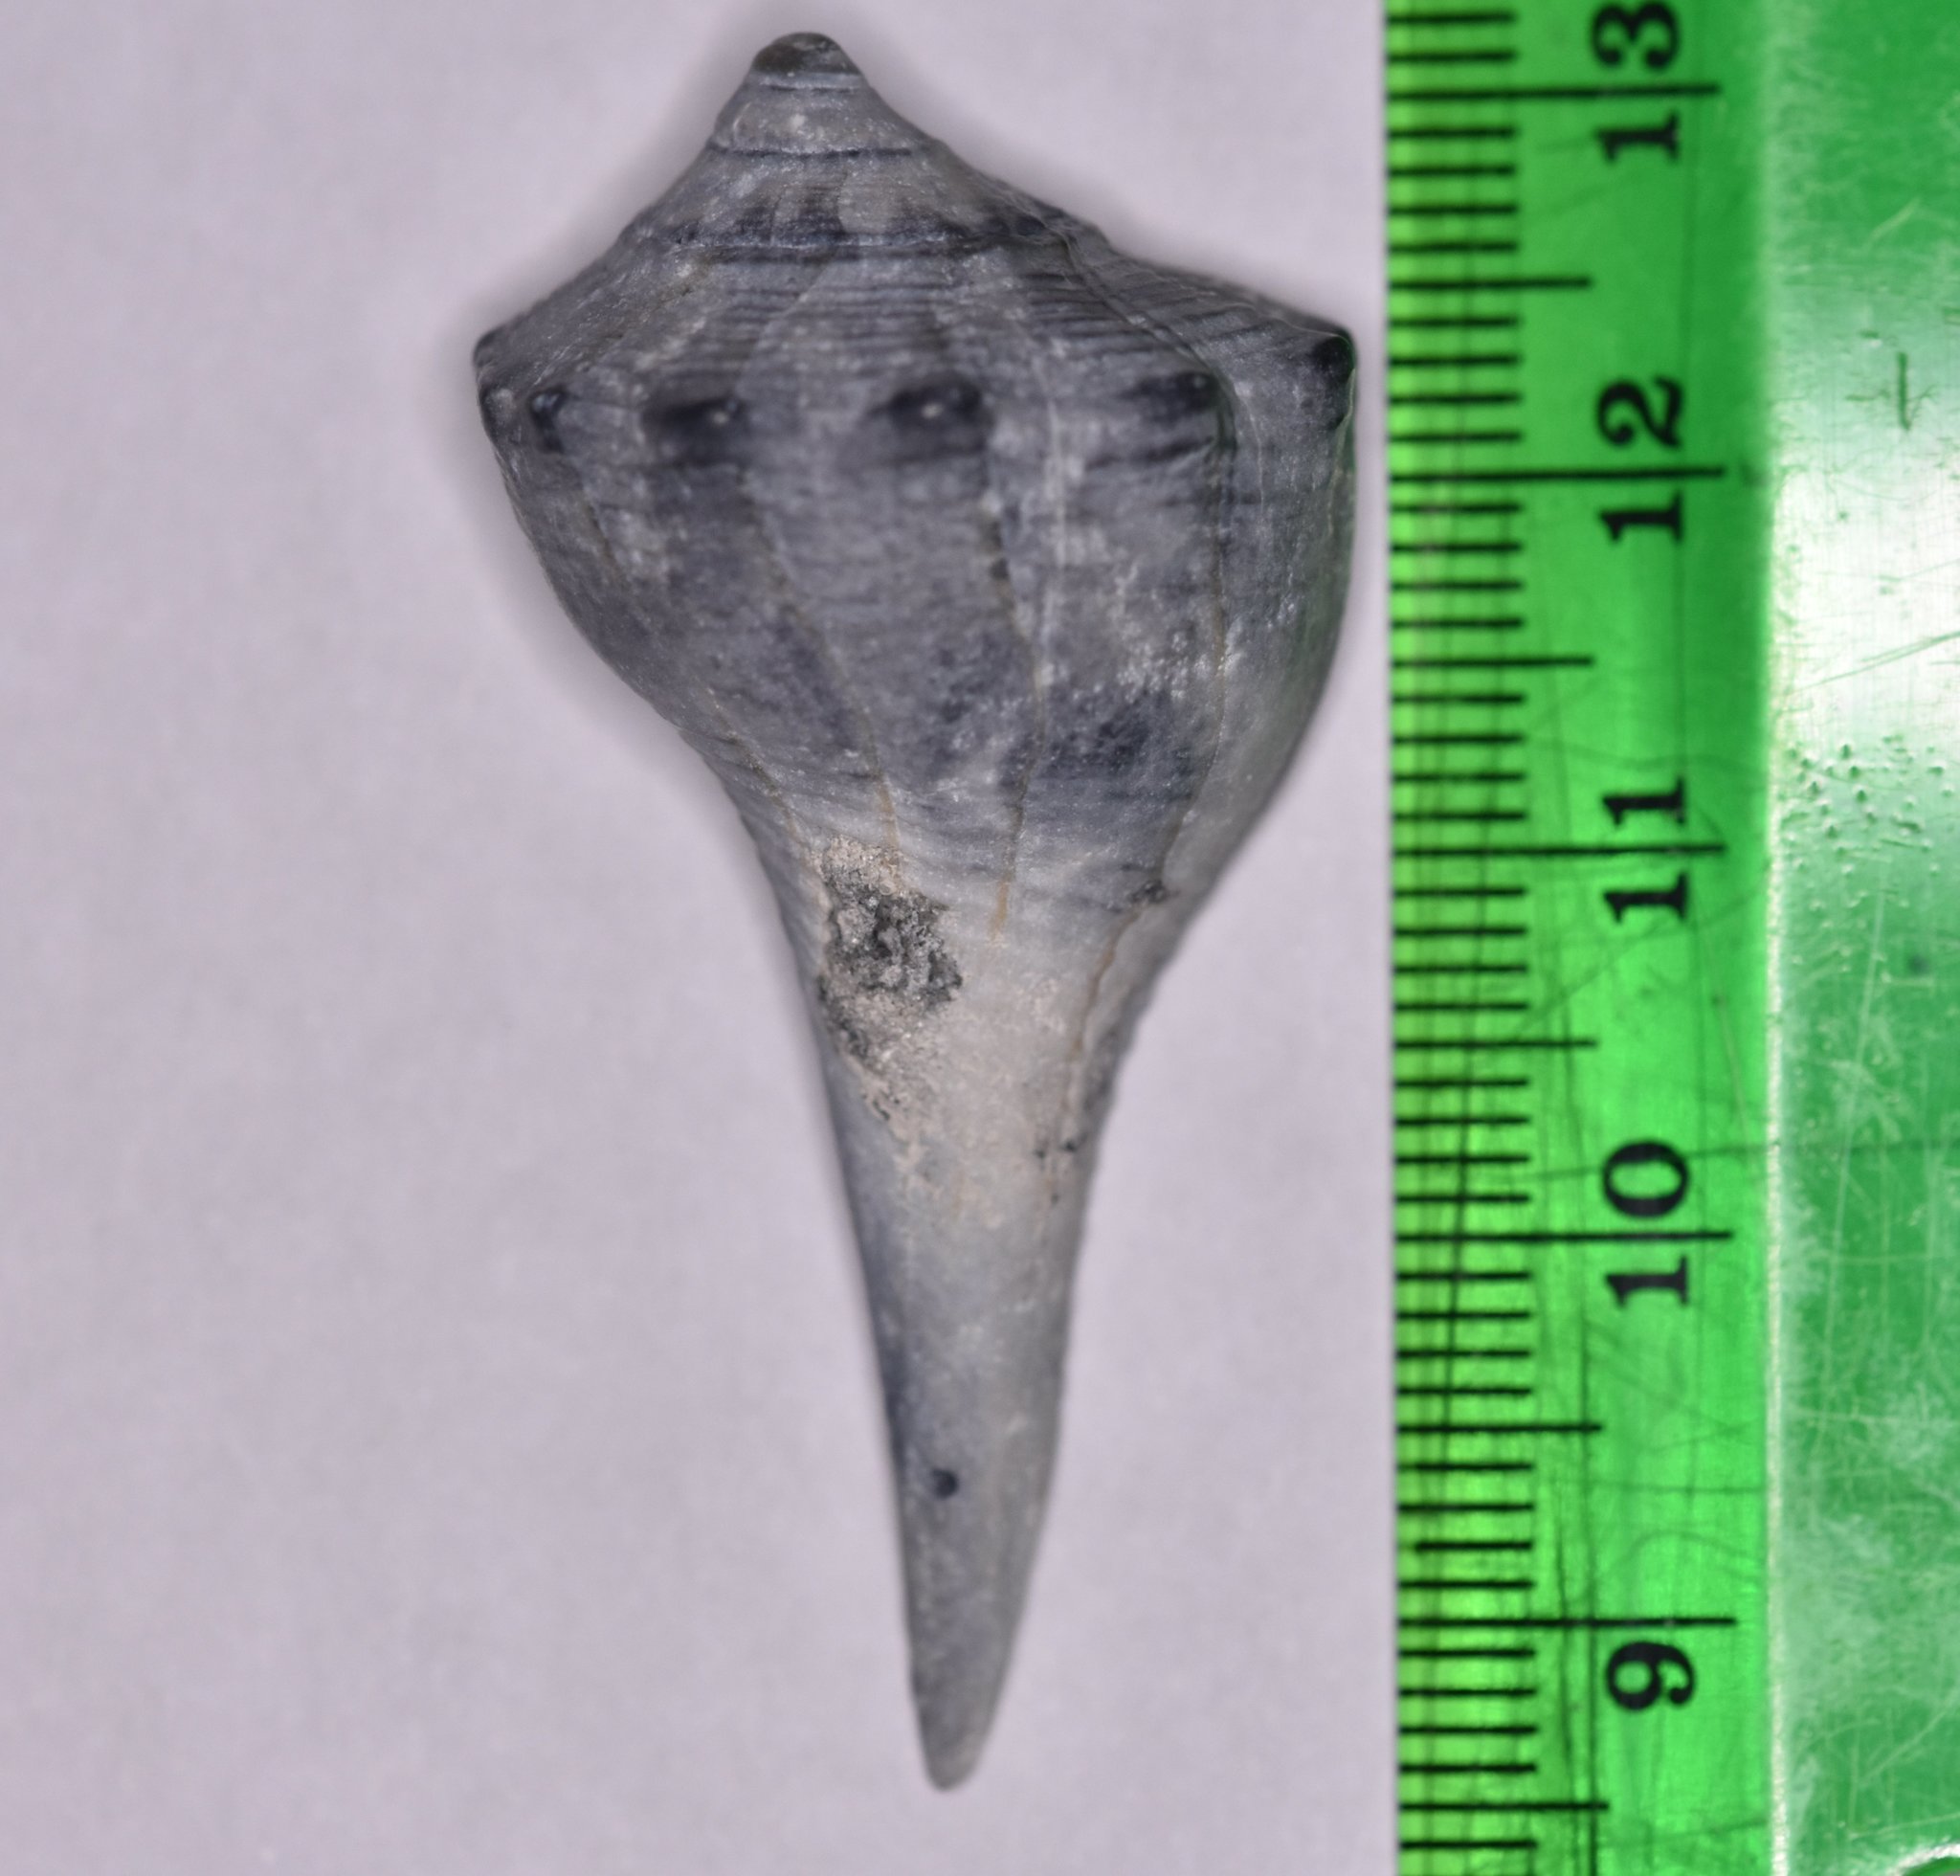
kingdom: Animalia
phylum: Mollusca
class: Gastropoda
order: Neogastropoda
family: Busyconidae
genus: Sinistrofulgur
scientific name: Sinistrofulgur sinistrum
